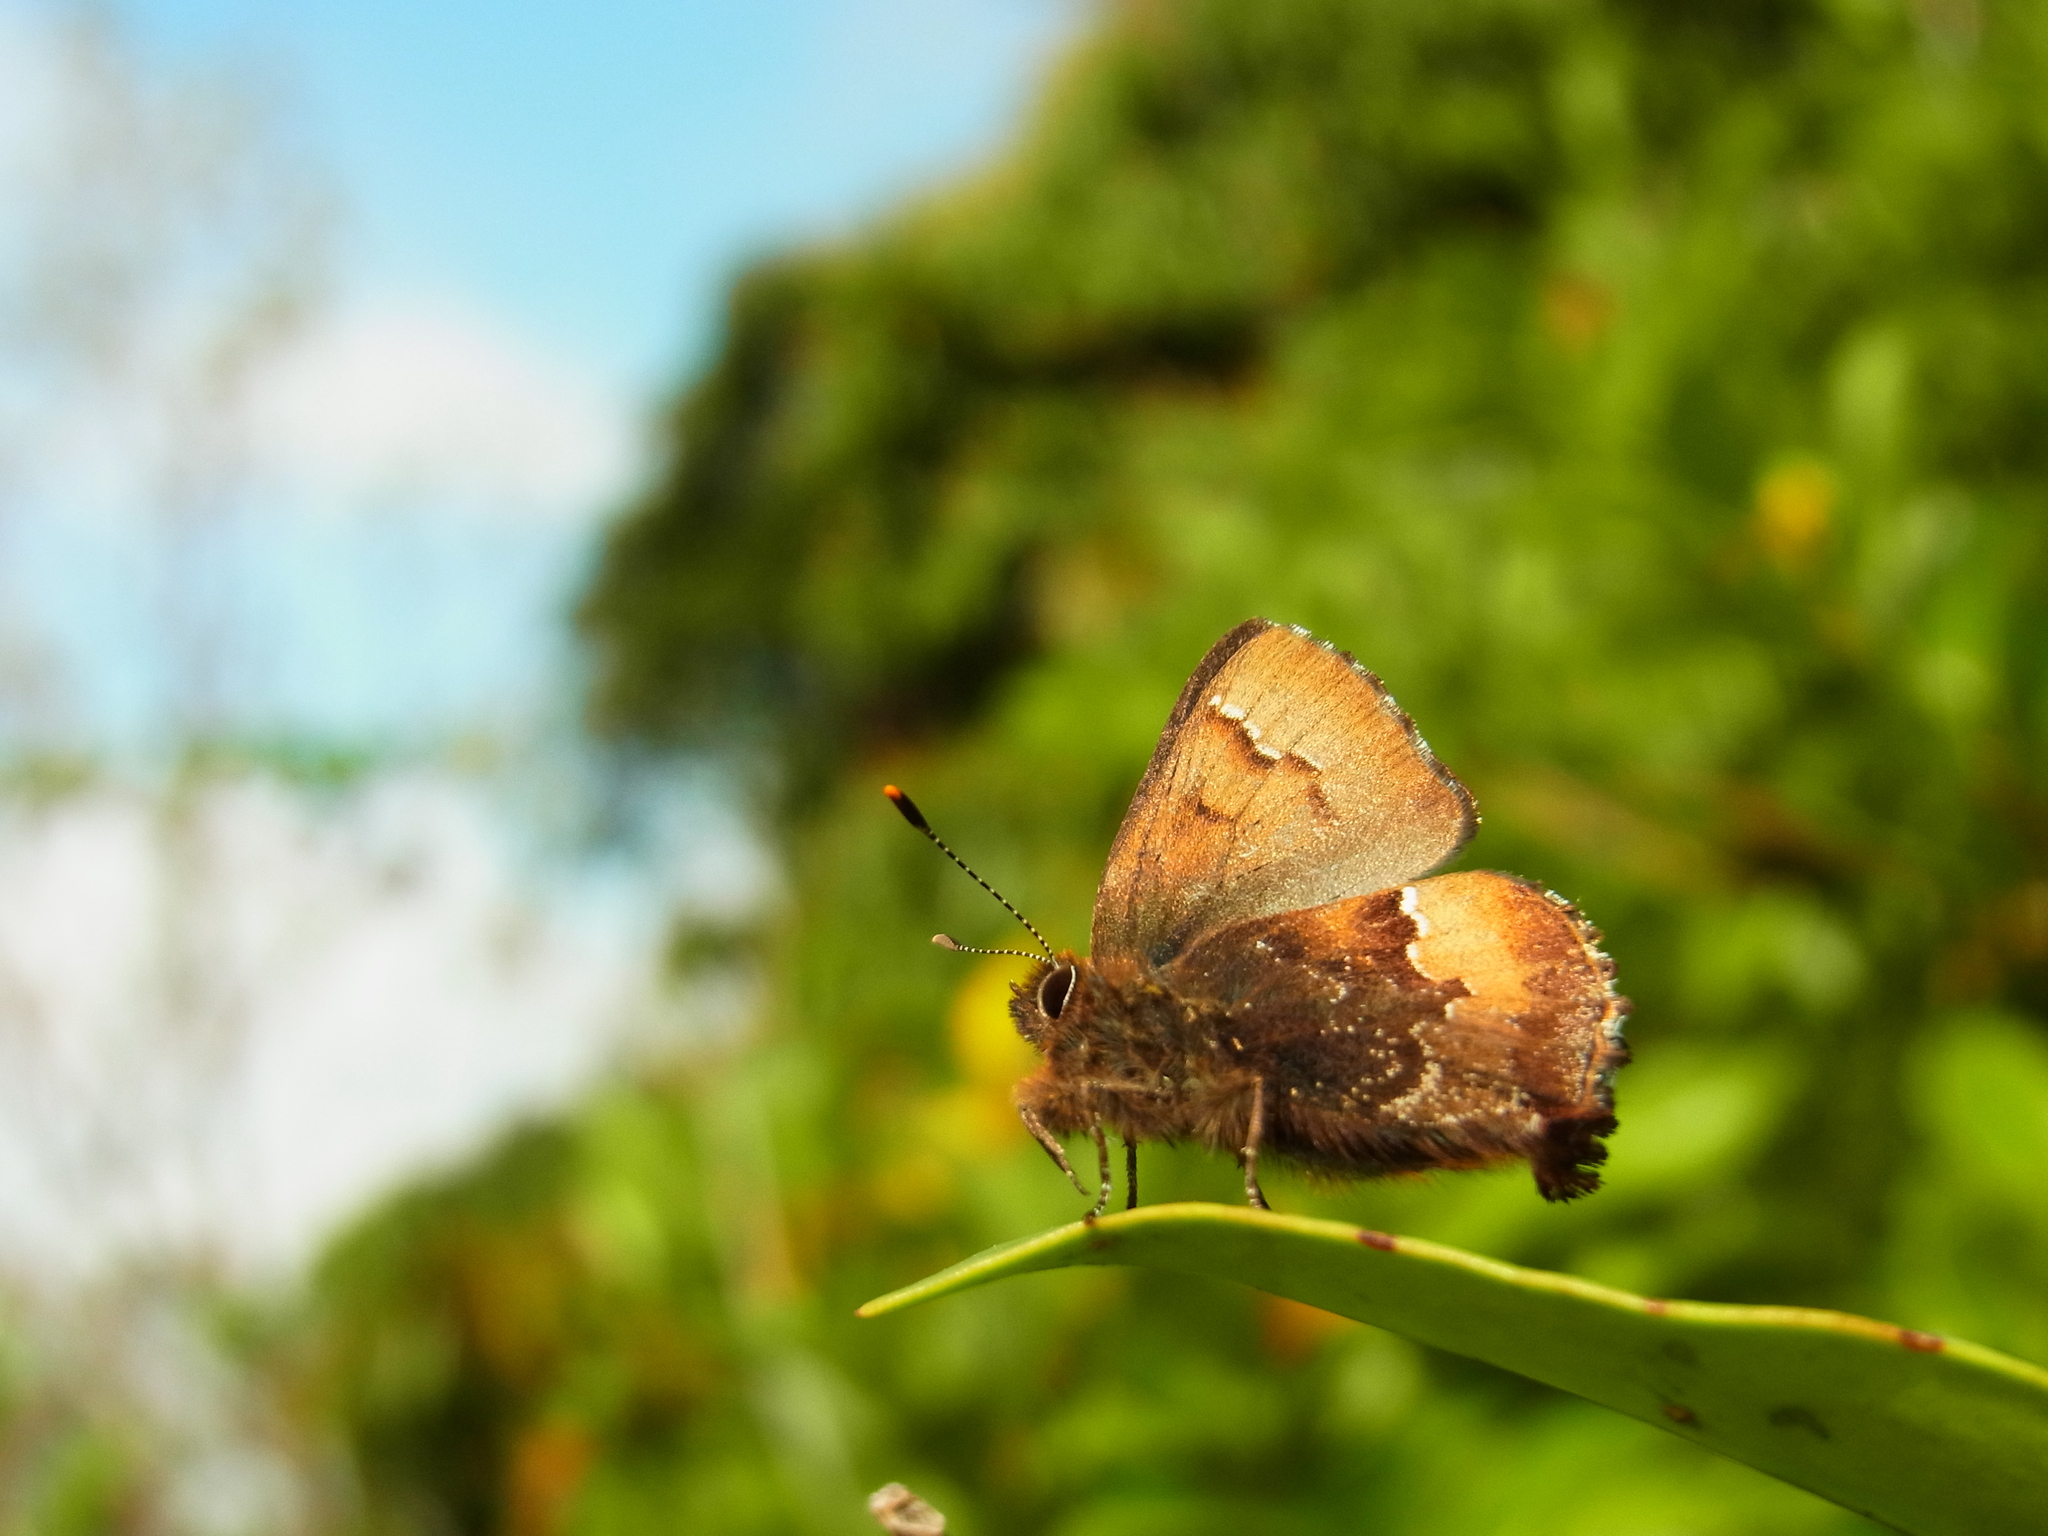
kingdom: Animalia
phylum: Arthropoda
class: Insecta
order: Lepidoptera
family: Lycaenidae
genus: Ginzia
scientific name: Ginzia frivaldsky
